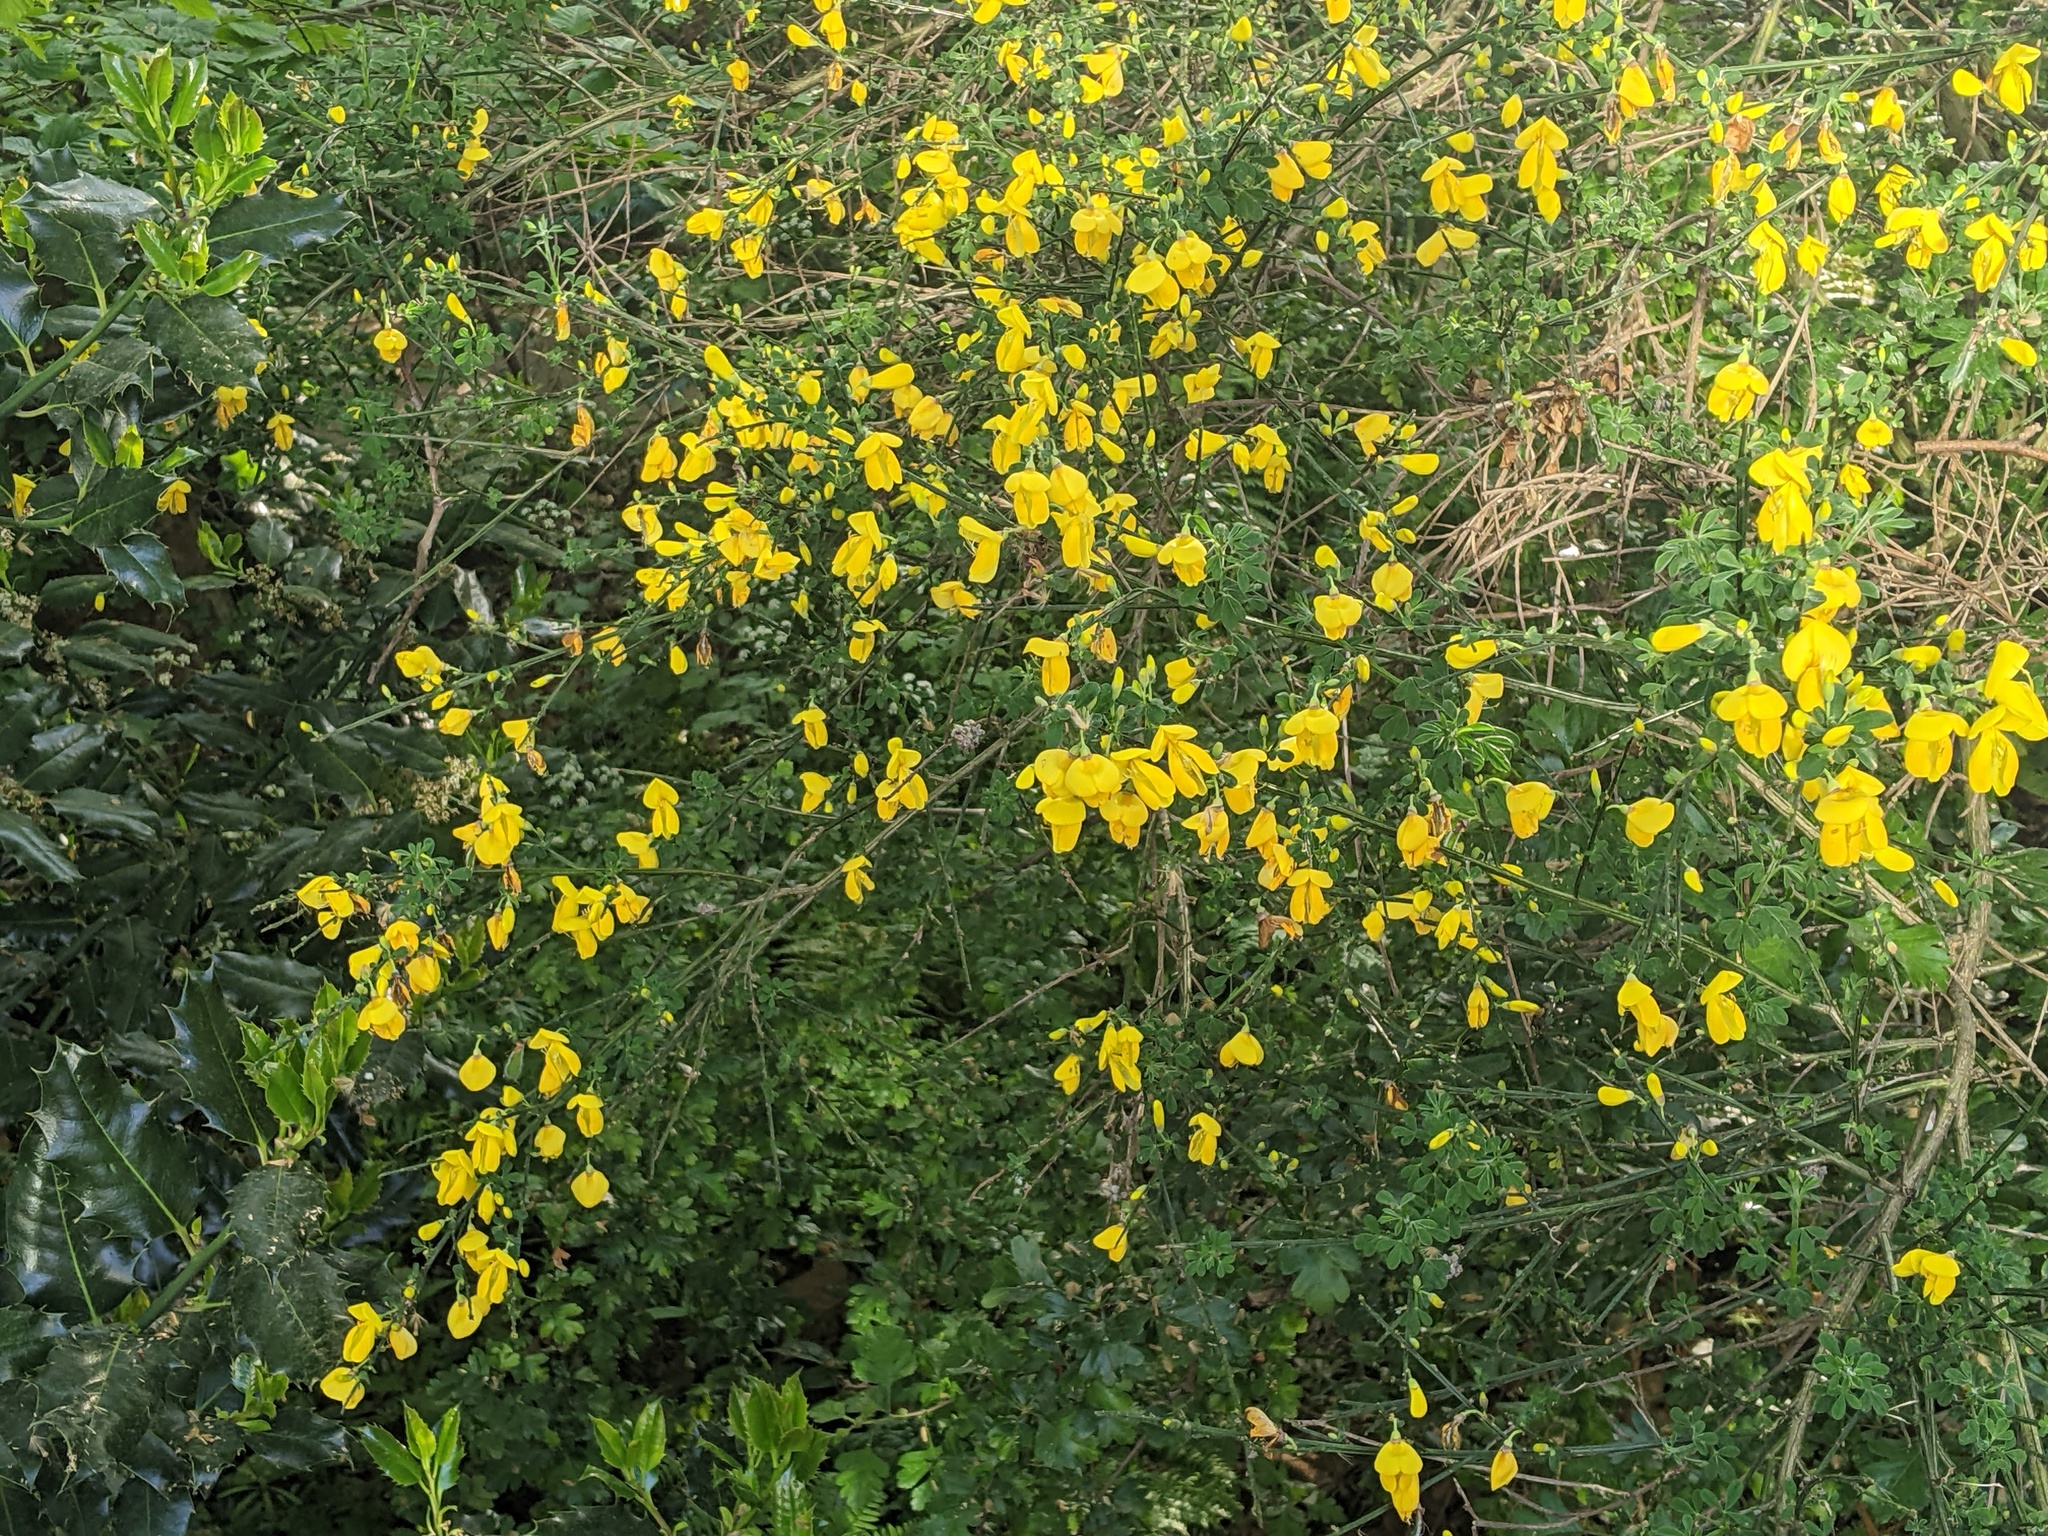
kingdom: Plantae
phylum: Tracheophyta
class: Magnoliopsida
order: Fabales
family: Fabaceae
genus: Cytisus
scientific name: Cytisus scoparius
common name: Scotch broom
